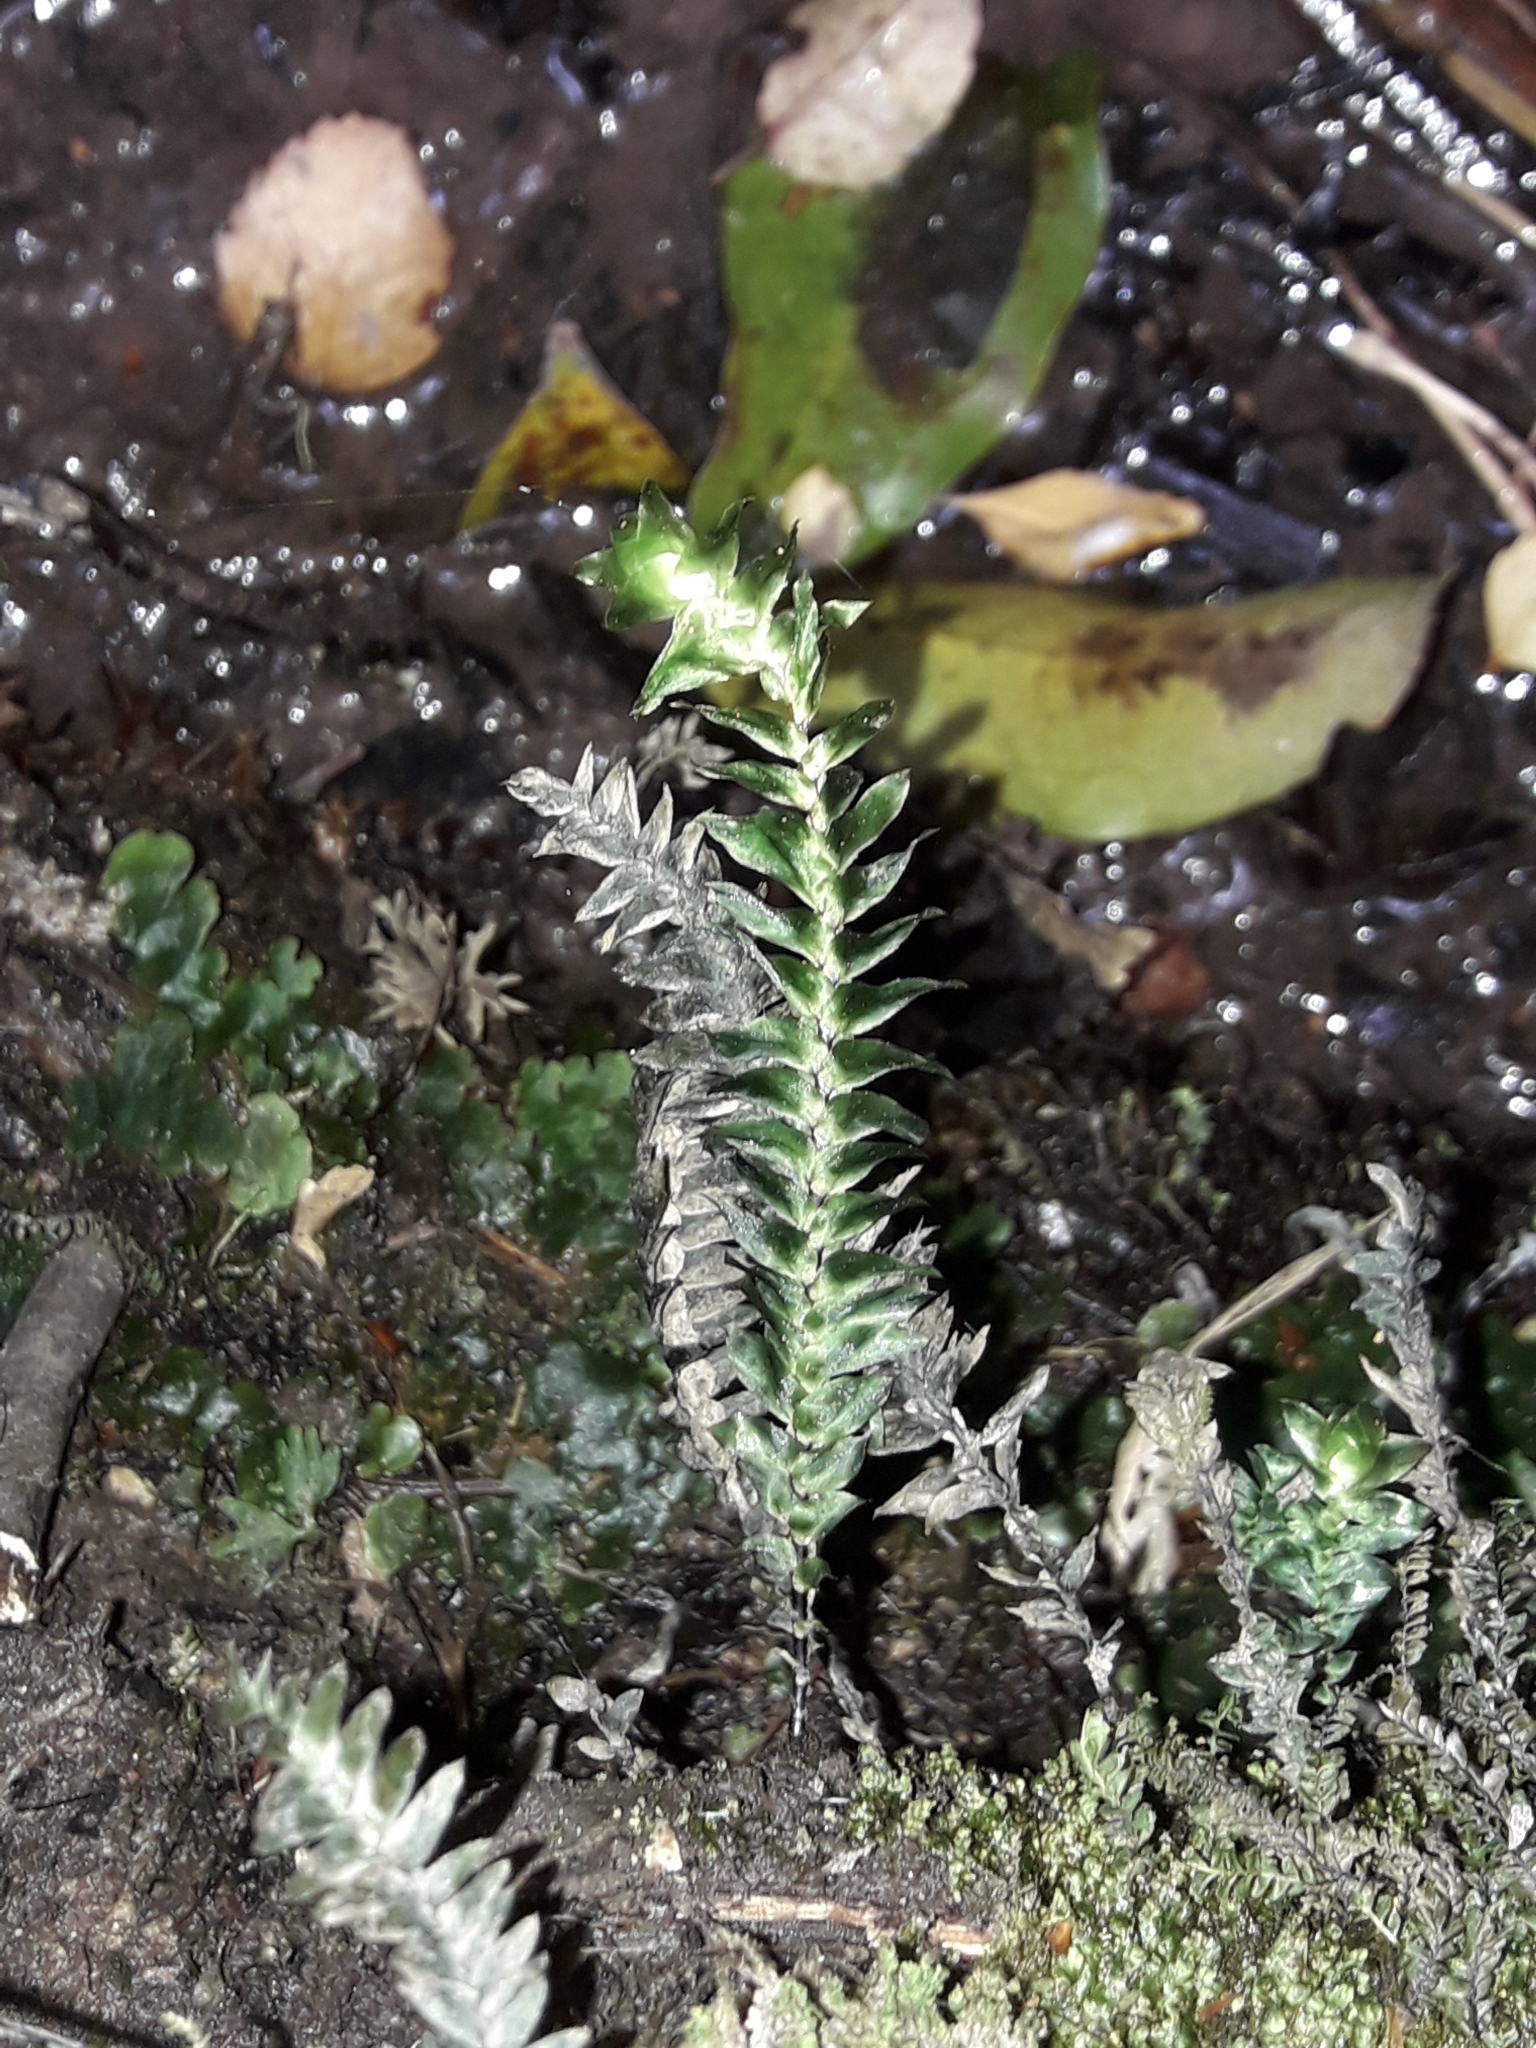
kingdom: Plantae
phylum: Bryophyta
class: Bryopsida
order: Hypopterygiales
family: Hypopterygiaceae
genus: Cyathophorum
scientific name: Cyathophorum bulbosum
